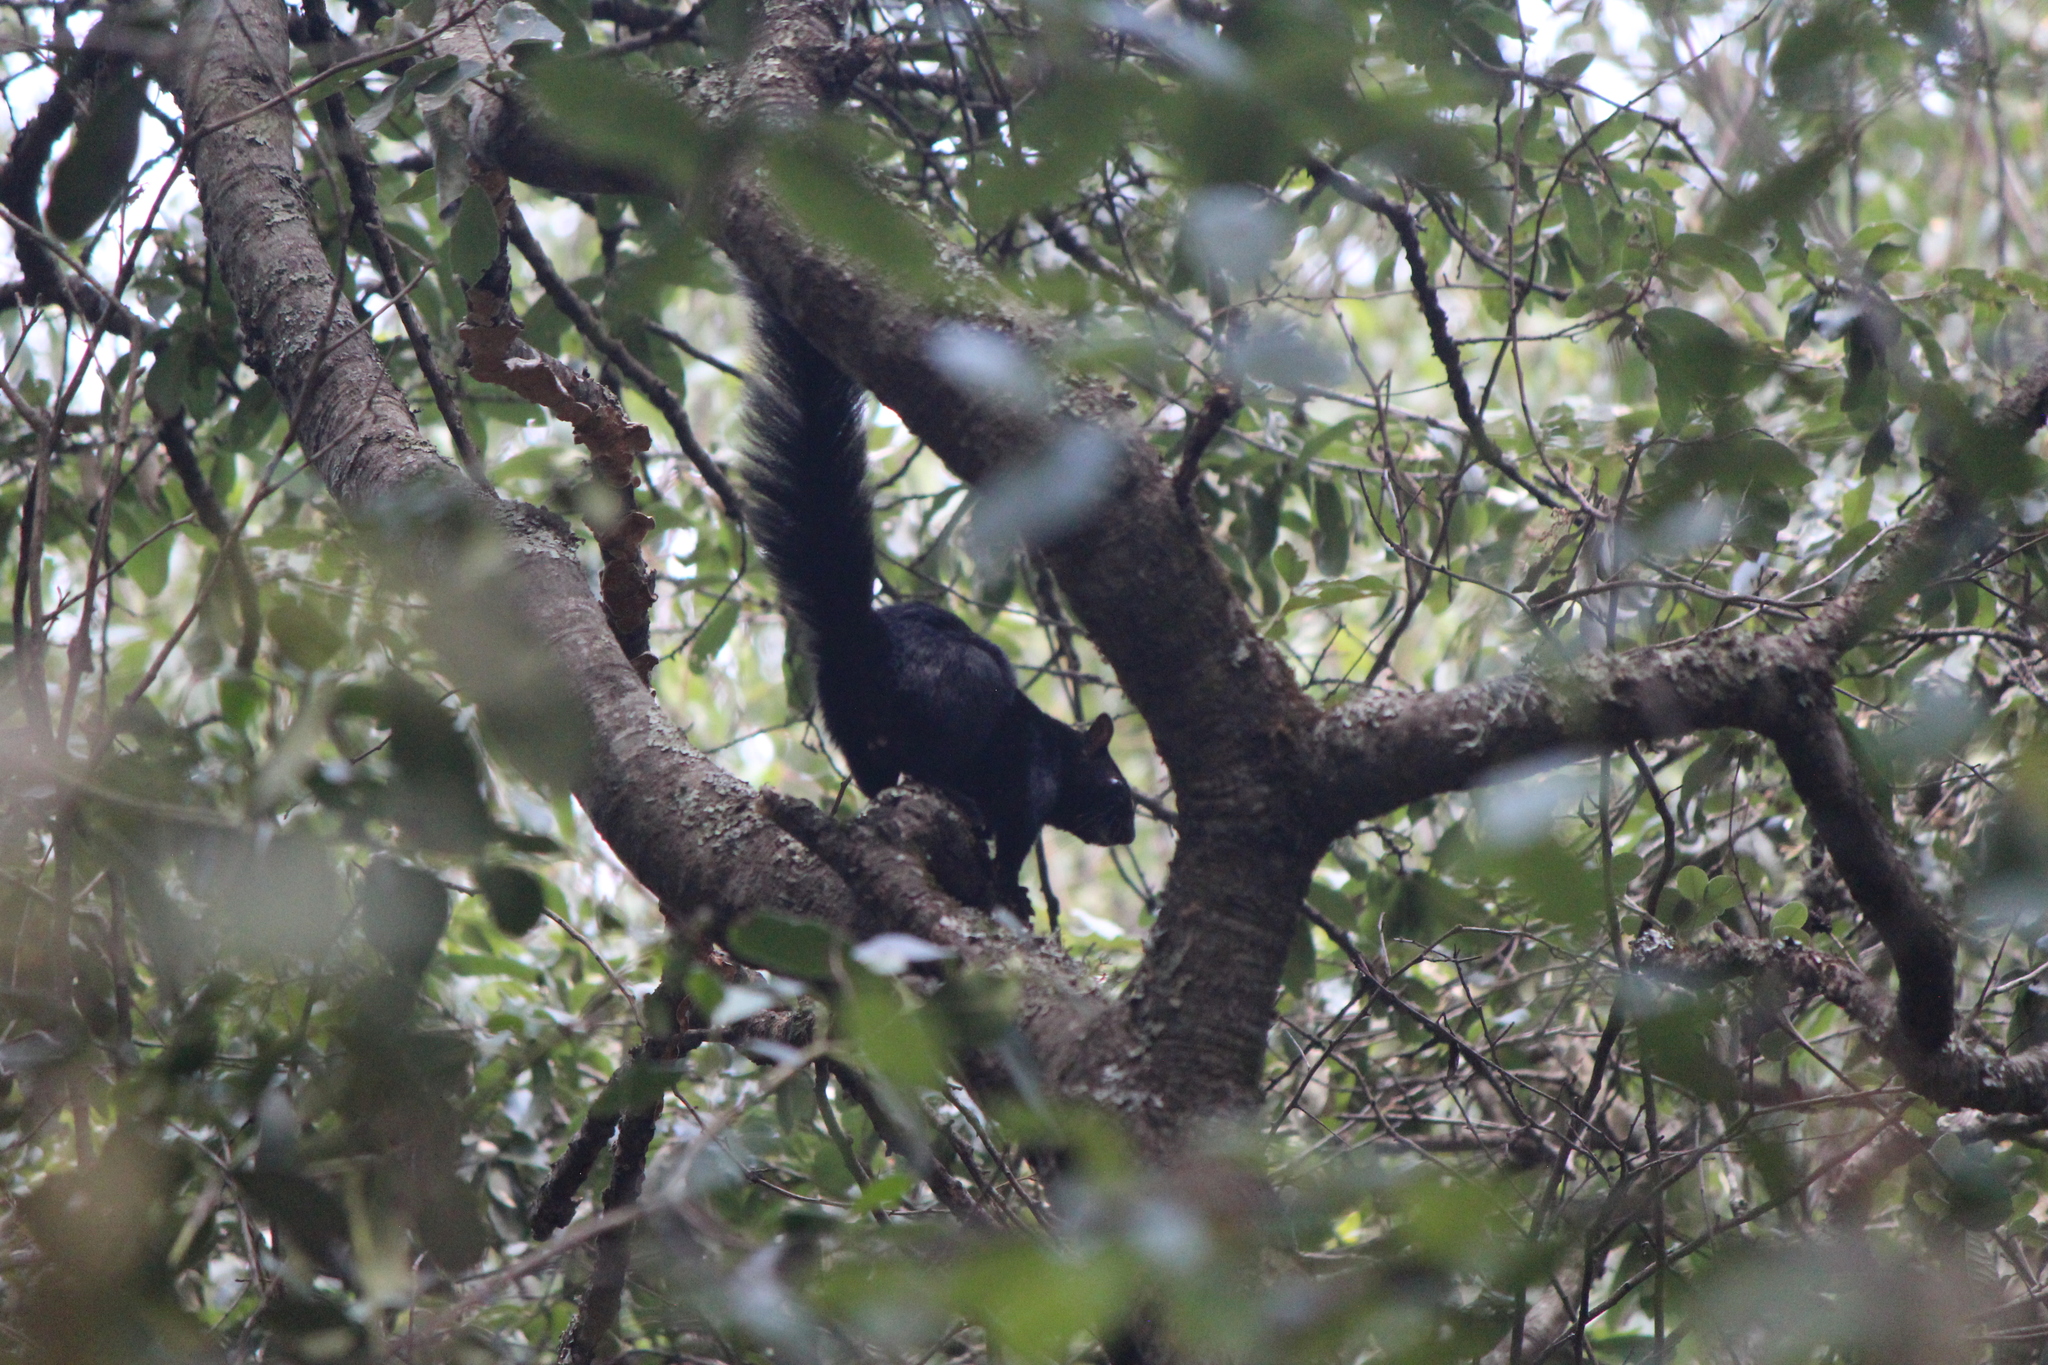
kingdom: Animalia
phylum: Chordata
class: Mammalia
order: Rodentia
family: Sciuridae
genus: Sciurus
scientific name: Sciurus aureogaster
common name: Red-bellied squirrel
